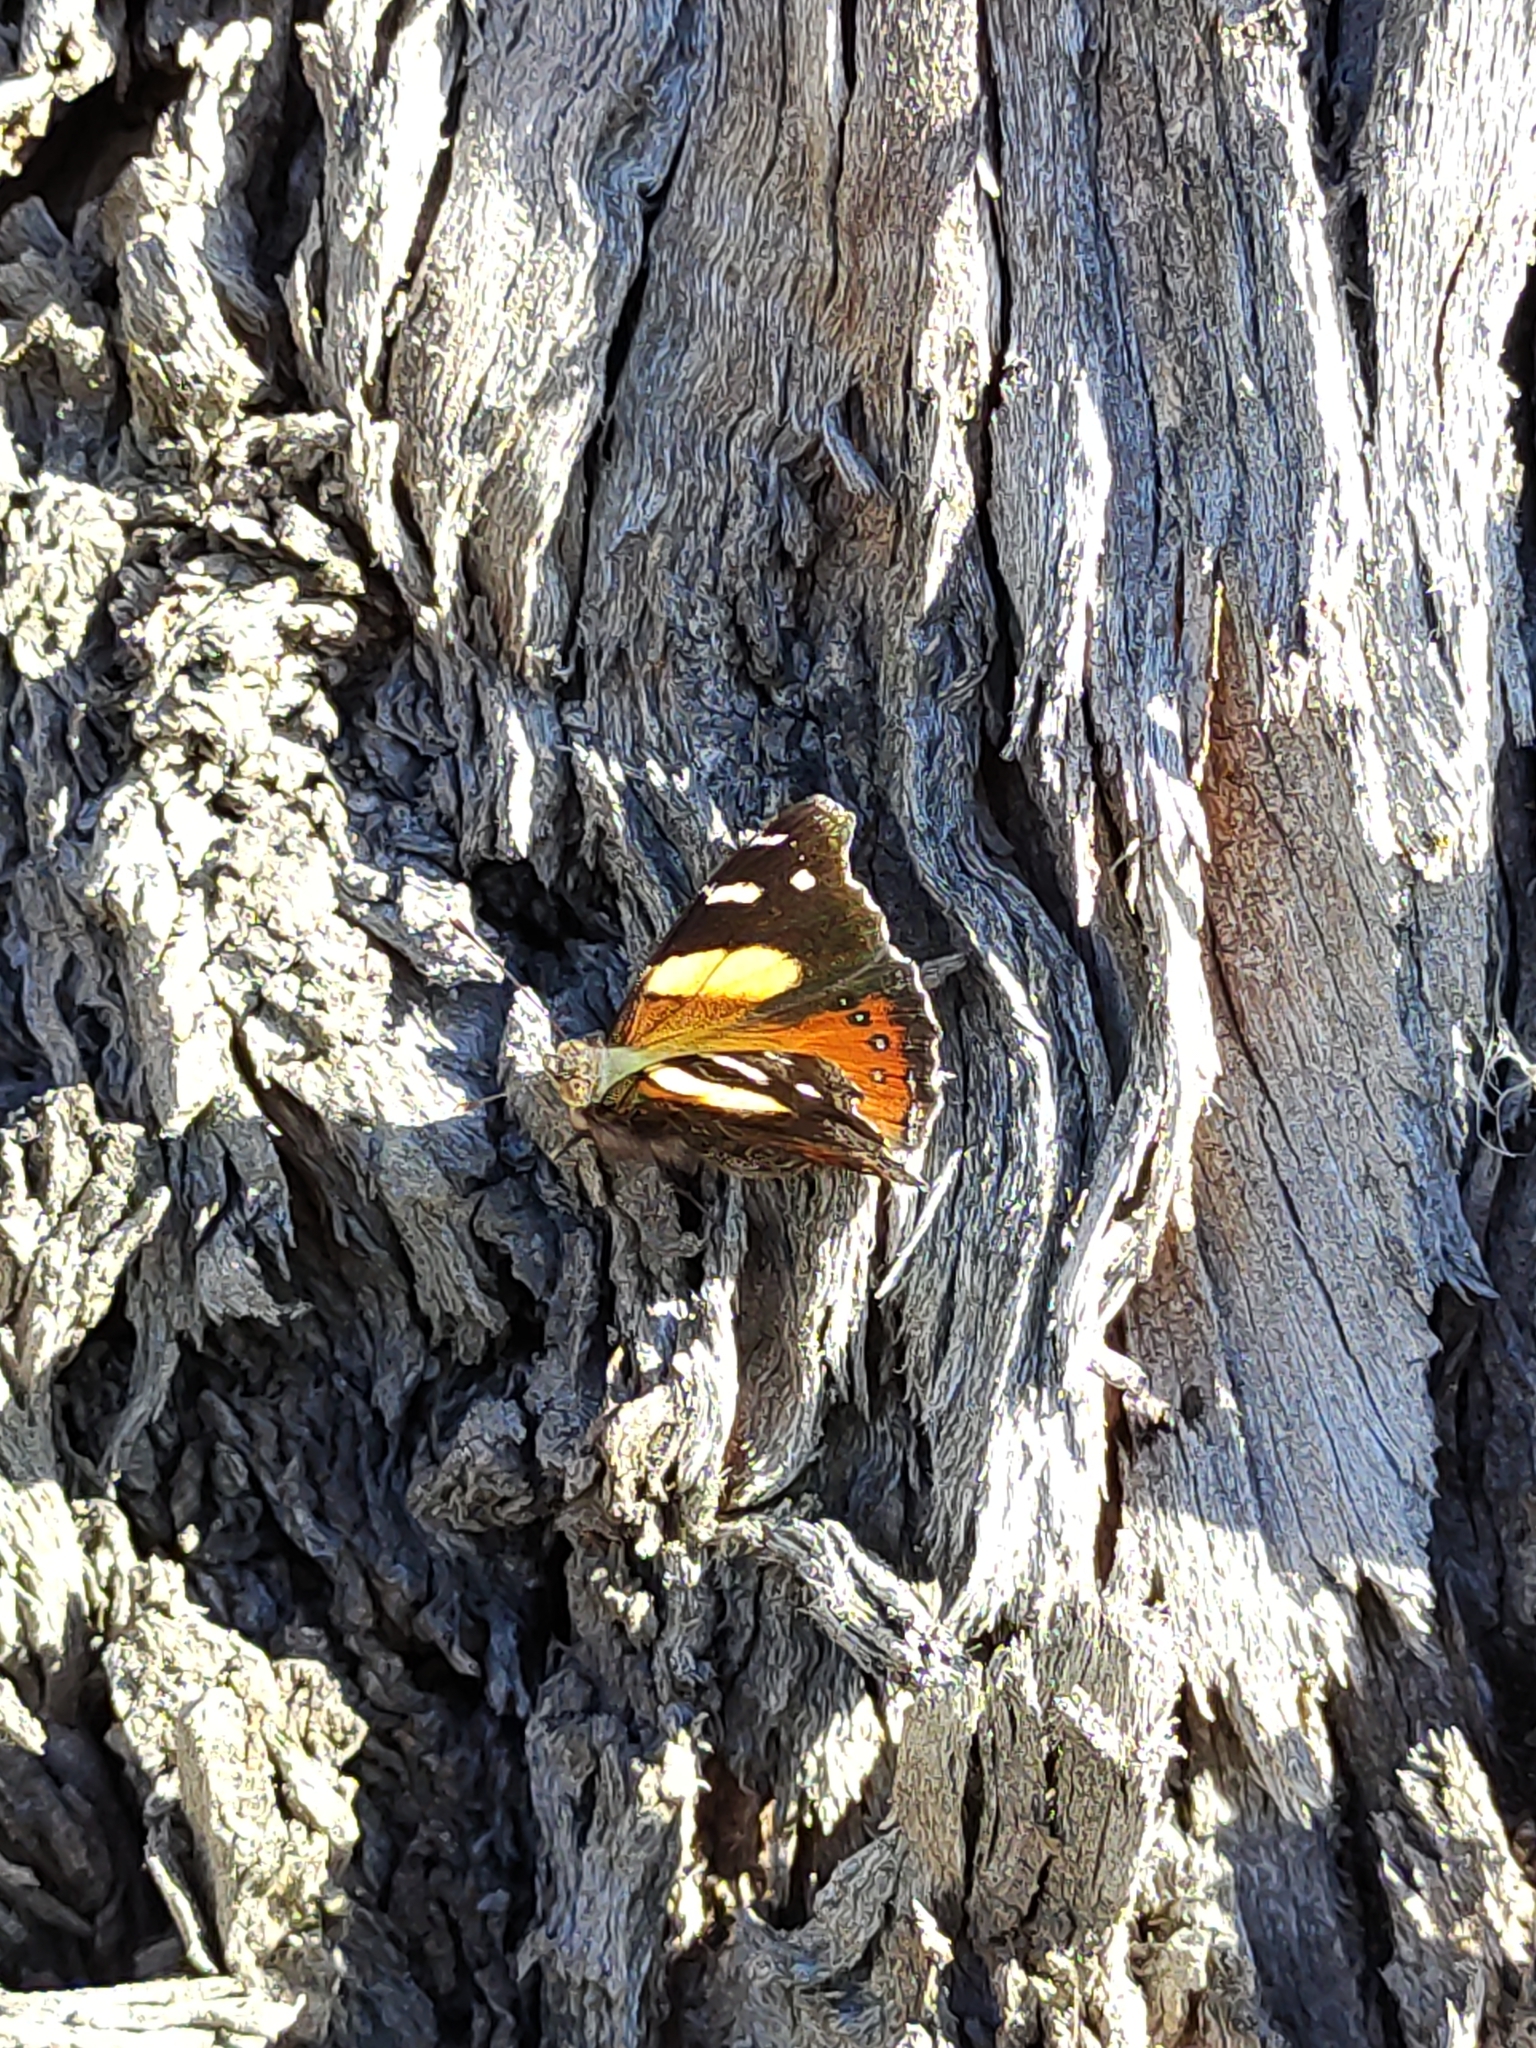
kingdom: Animalia
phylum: Arthropoda
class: Insecta
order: Lepidoptera
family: Nymphalidae
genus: Vanessa
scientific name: Vanessa itea
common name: Yellow admiral
